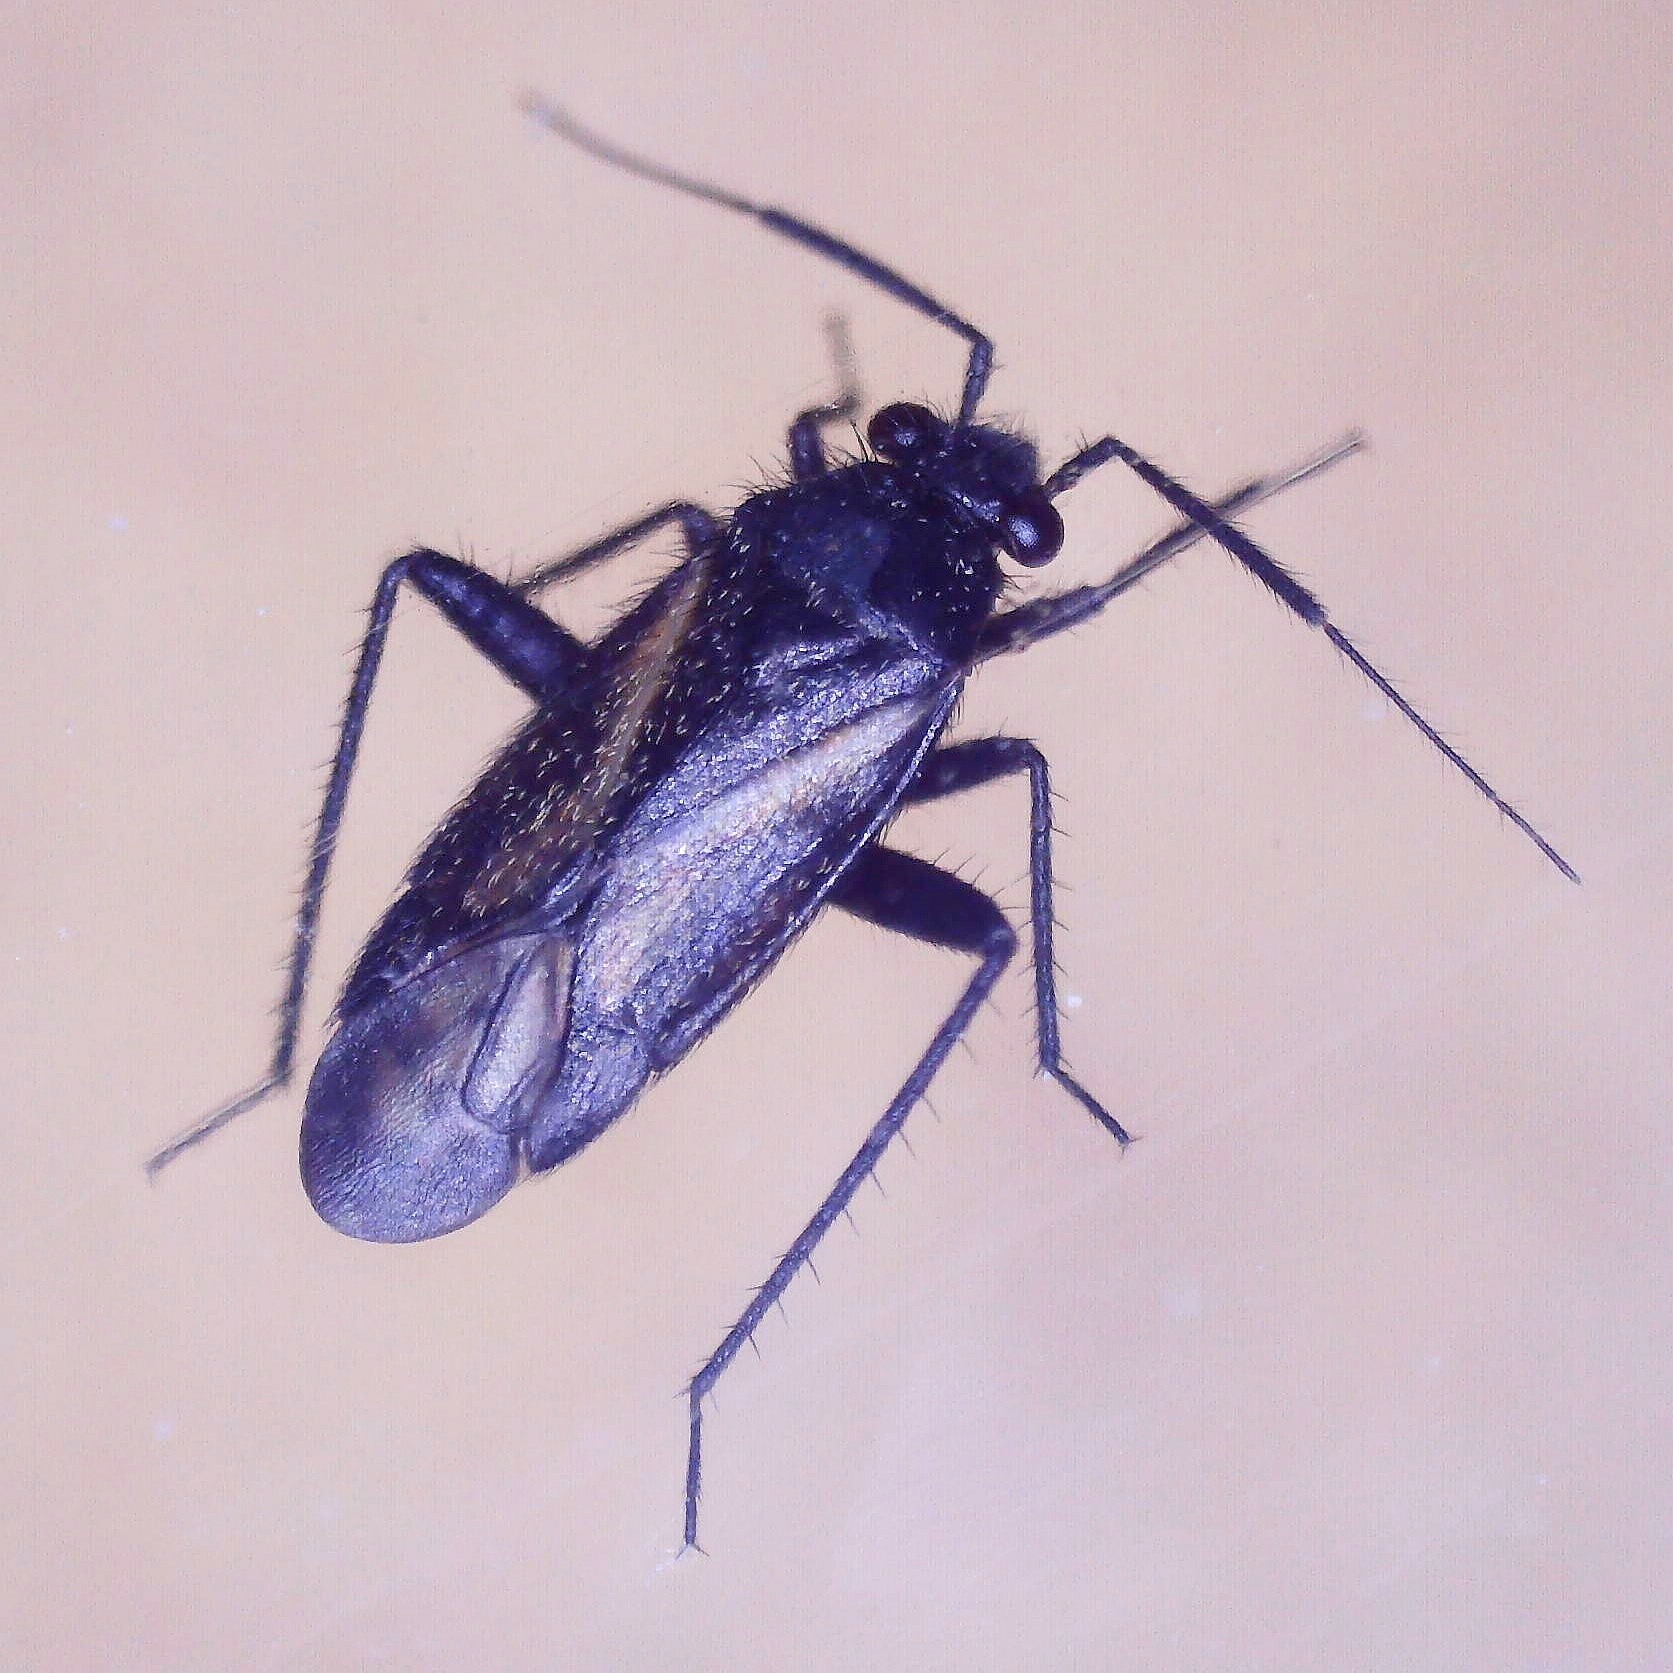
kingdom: Animalia
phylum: Arthropoda
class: Insecta
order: Hemiptera
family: Miridae
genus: Orthocephalus
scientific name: Orthocephalus coriaceus
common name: Plant bug
